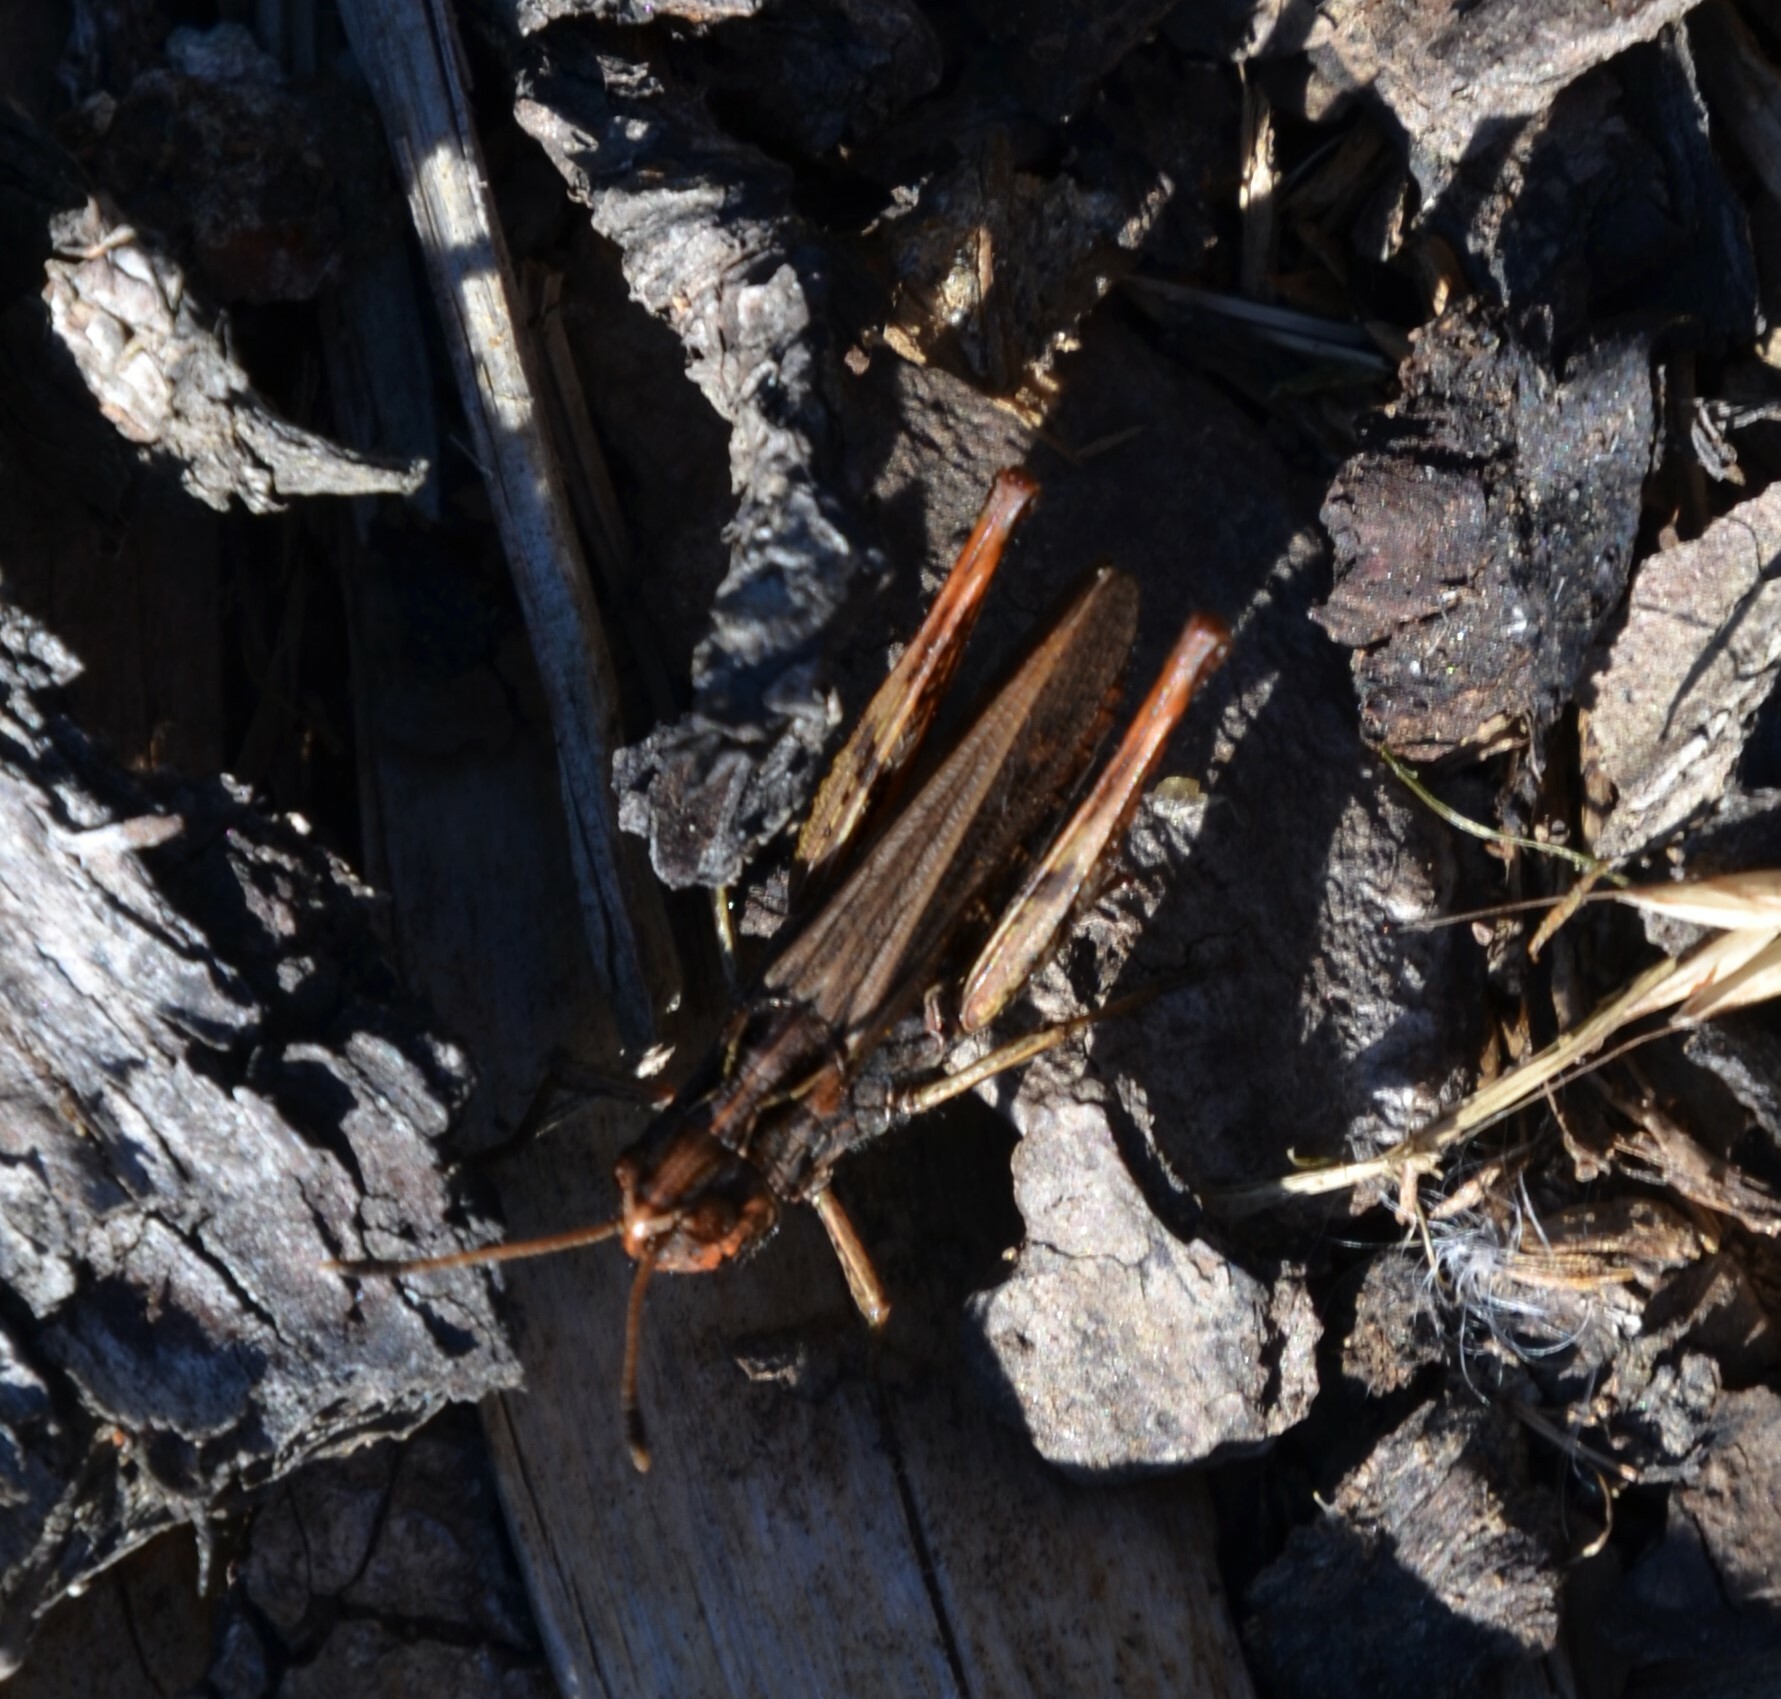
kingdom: Animalia
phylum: Arthropoda
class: Insecta
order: Orthoptera
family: Acrididae
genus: Gomphocerippus
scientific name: Gomphocerippus rufus
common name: Rufous grasshopper
